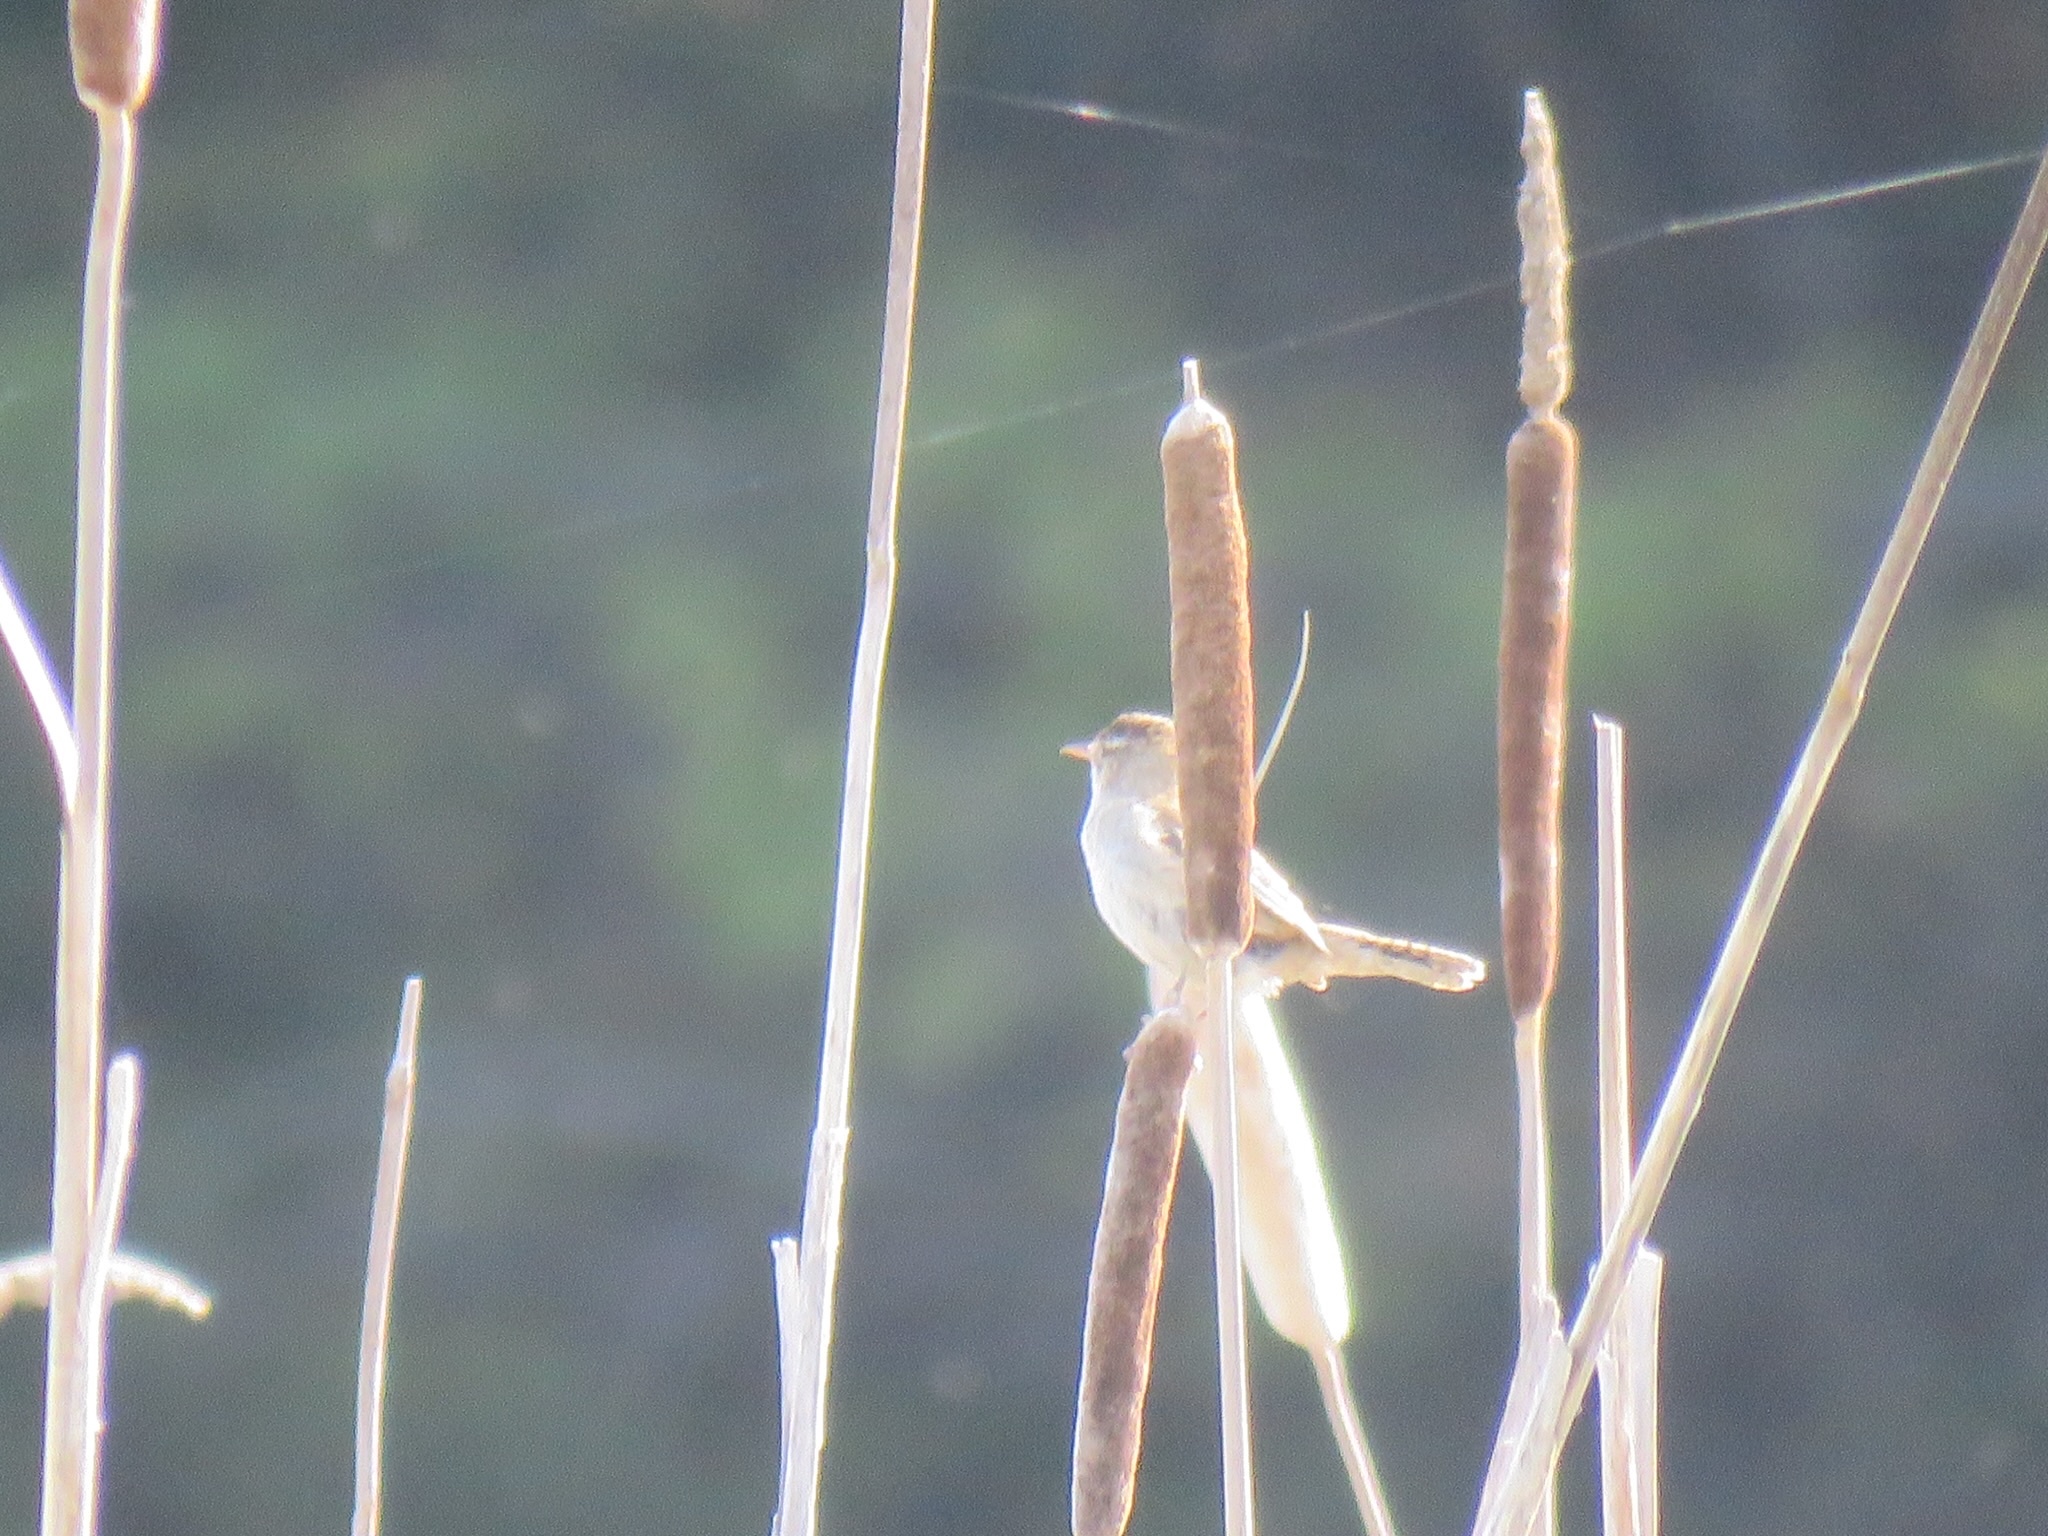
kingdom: Animalia
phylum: Chordata
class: Aves
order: Passeriformes
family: Troglodytidae
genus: Cistothorus
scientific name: Cistothorus palustris
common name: Marsh wren
